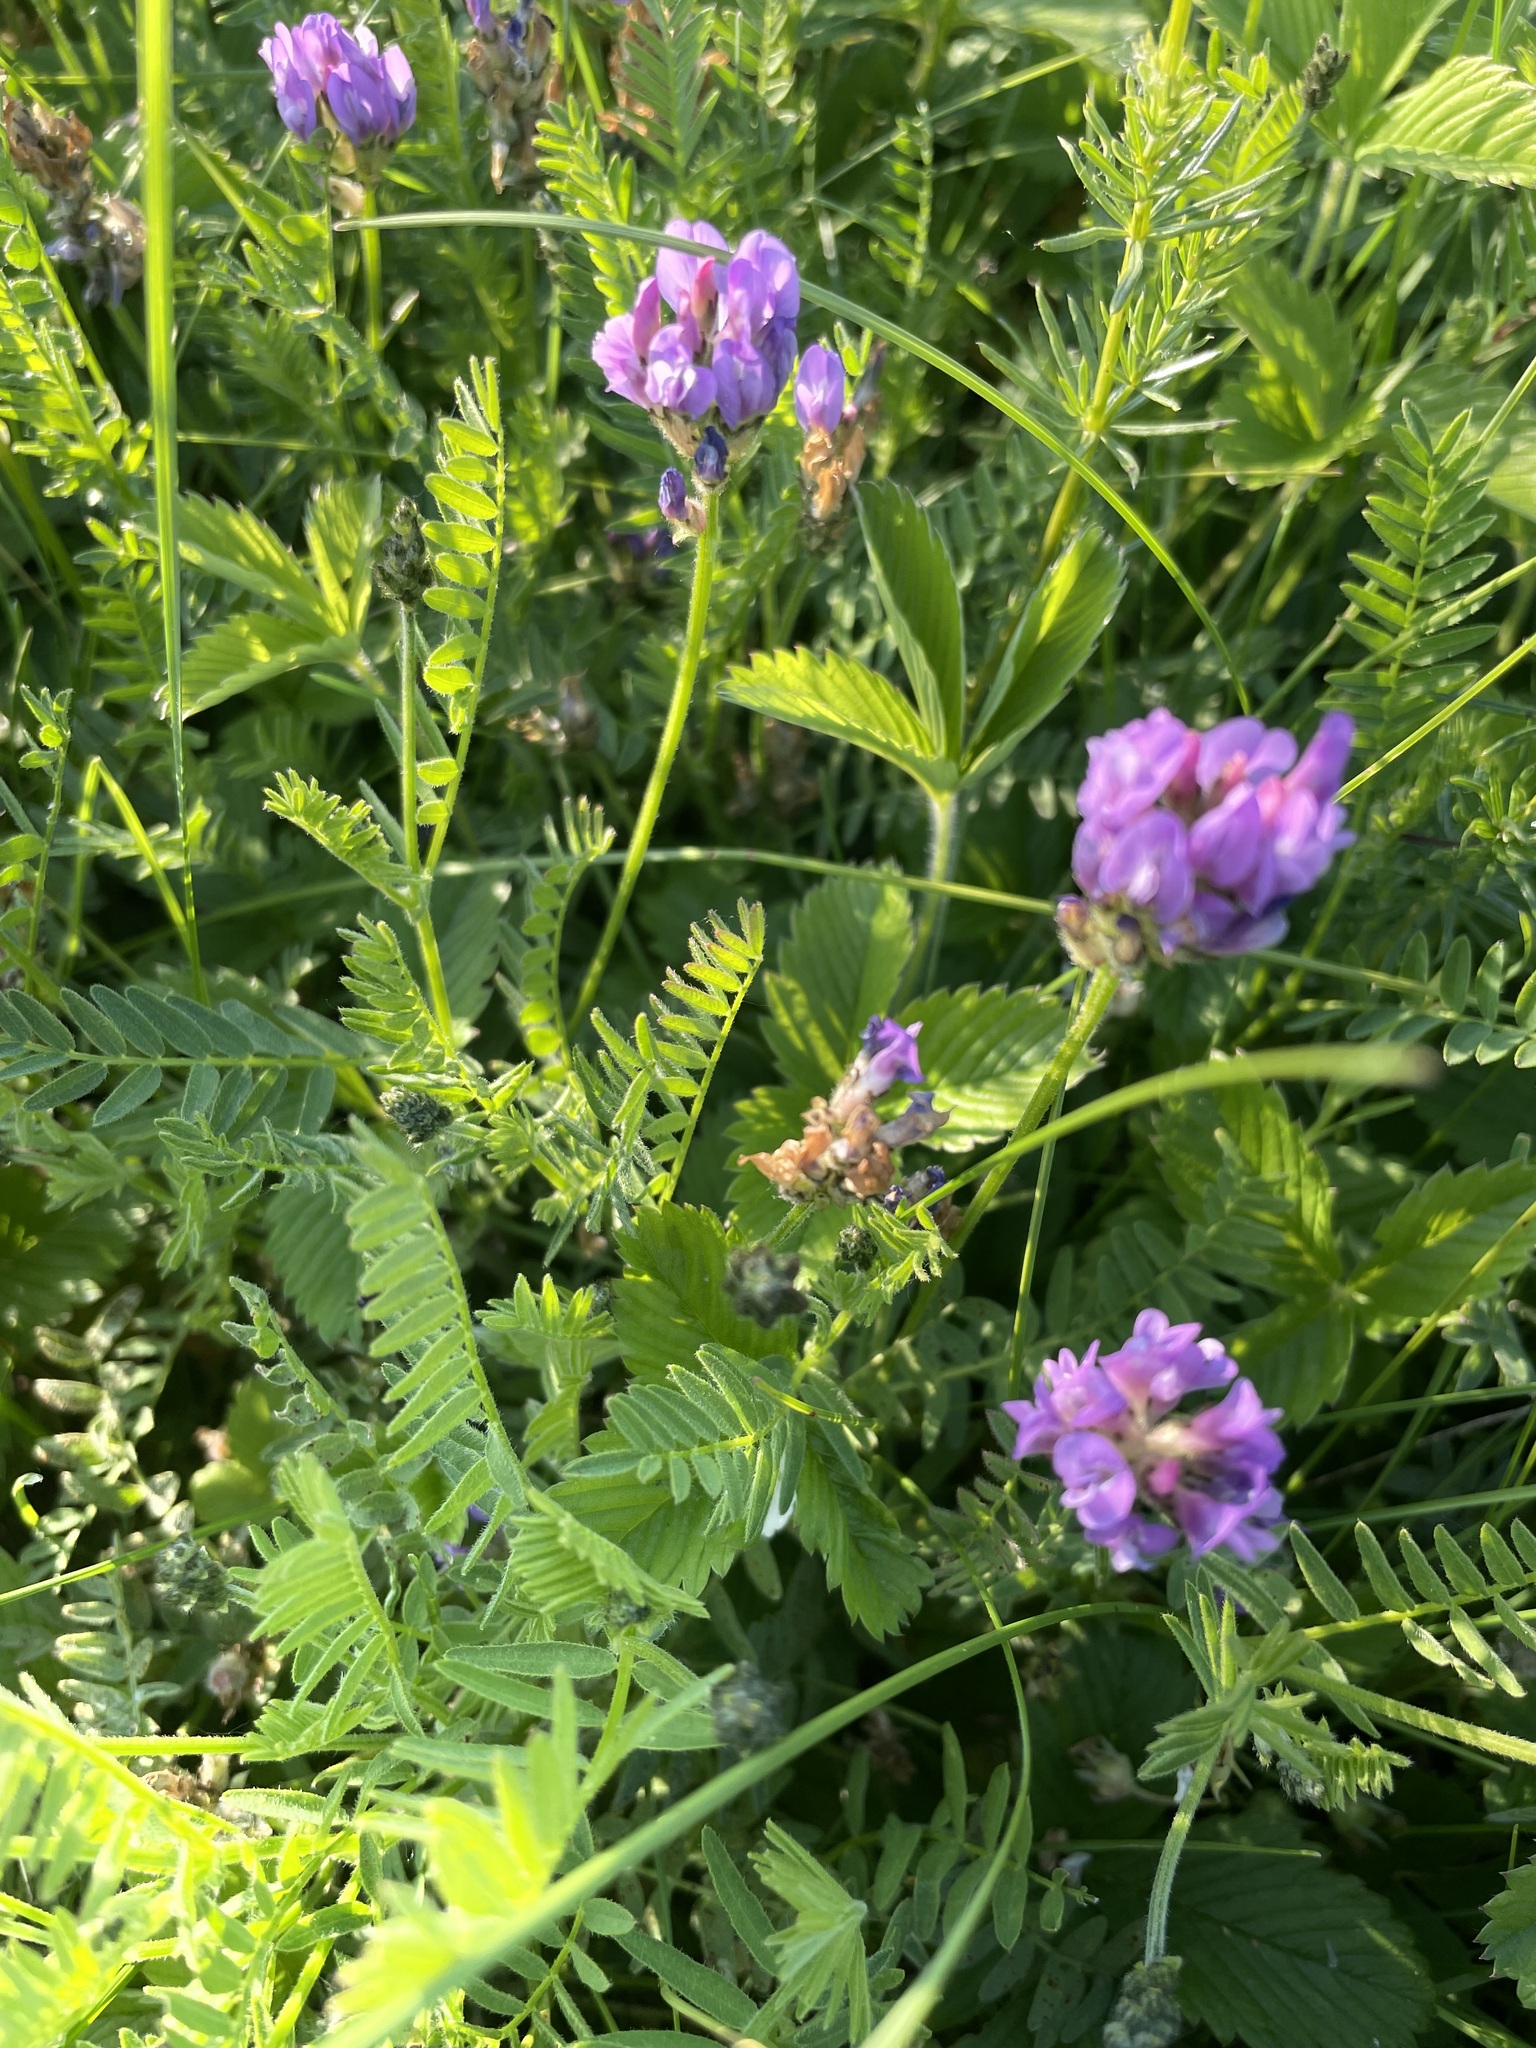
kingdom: Plantae
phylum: Tracheophyta
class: Magnoliopsida
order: Fabales
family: Fabaceae
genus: Astragalus
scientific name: Astragalus danicus
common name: Purple milk-vetch
